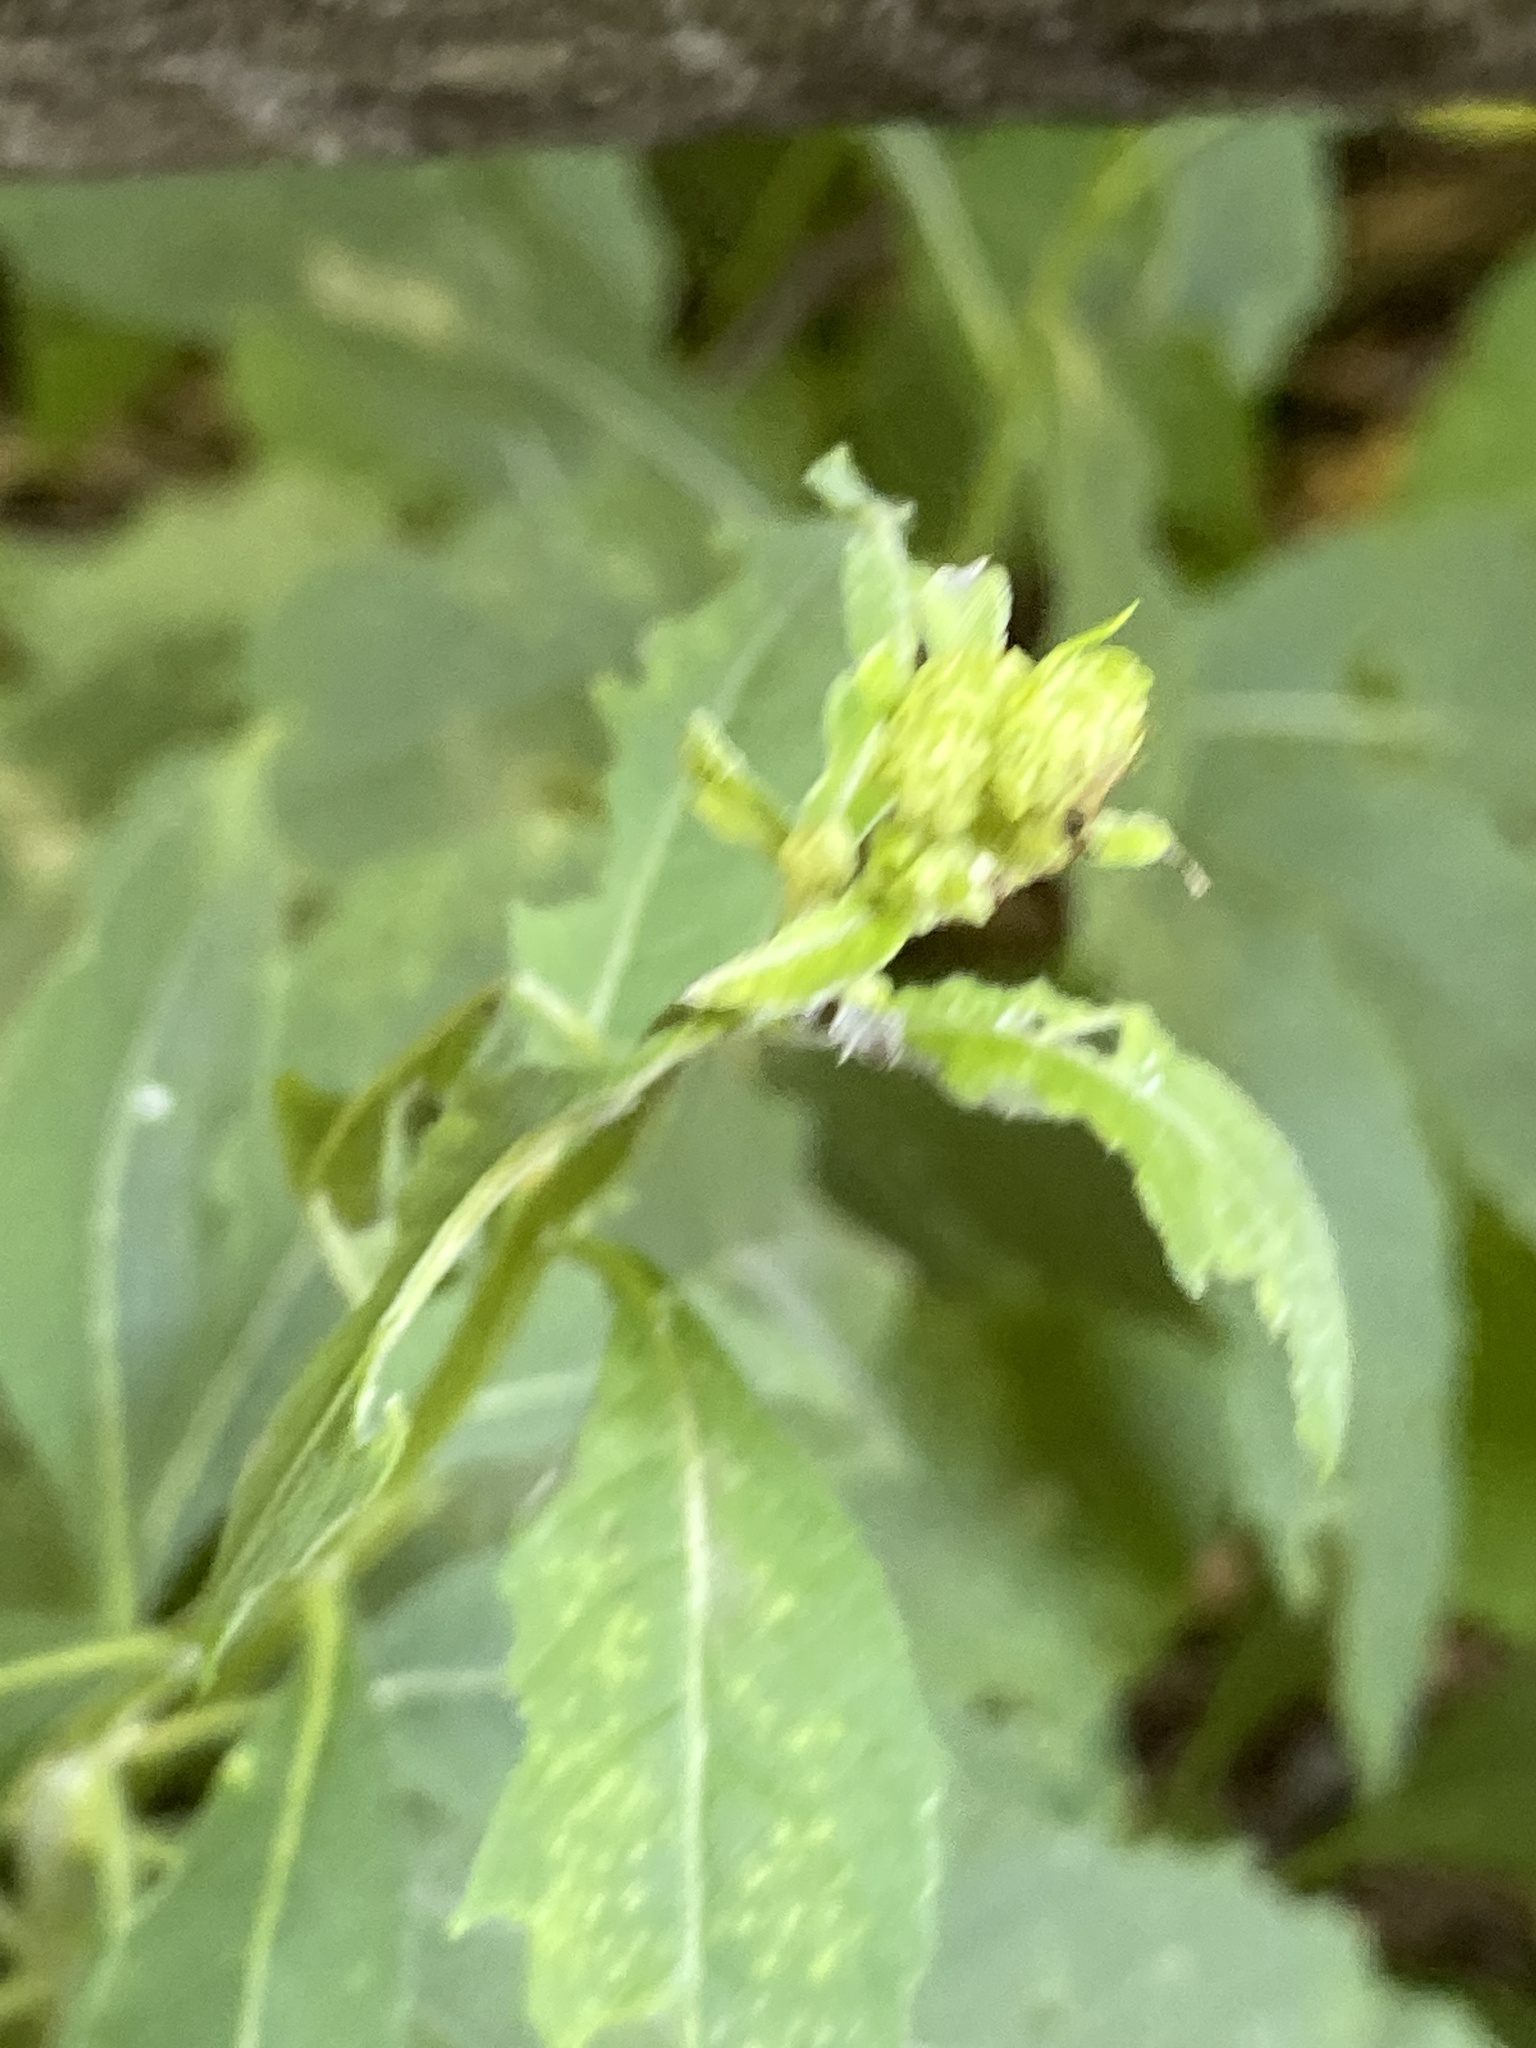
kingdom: Plantae
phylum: Tracheophyta
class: Magnoliopsida
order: Asterales
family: Asteraceae
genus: Verbesina
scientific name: Verbesina alternifolia
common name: Wingstem
